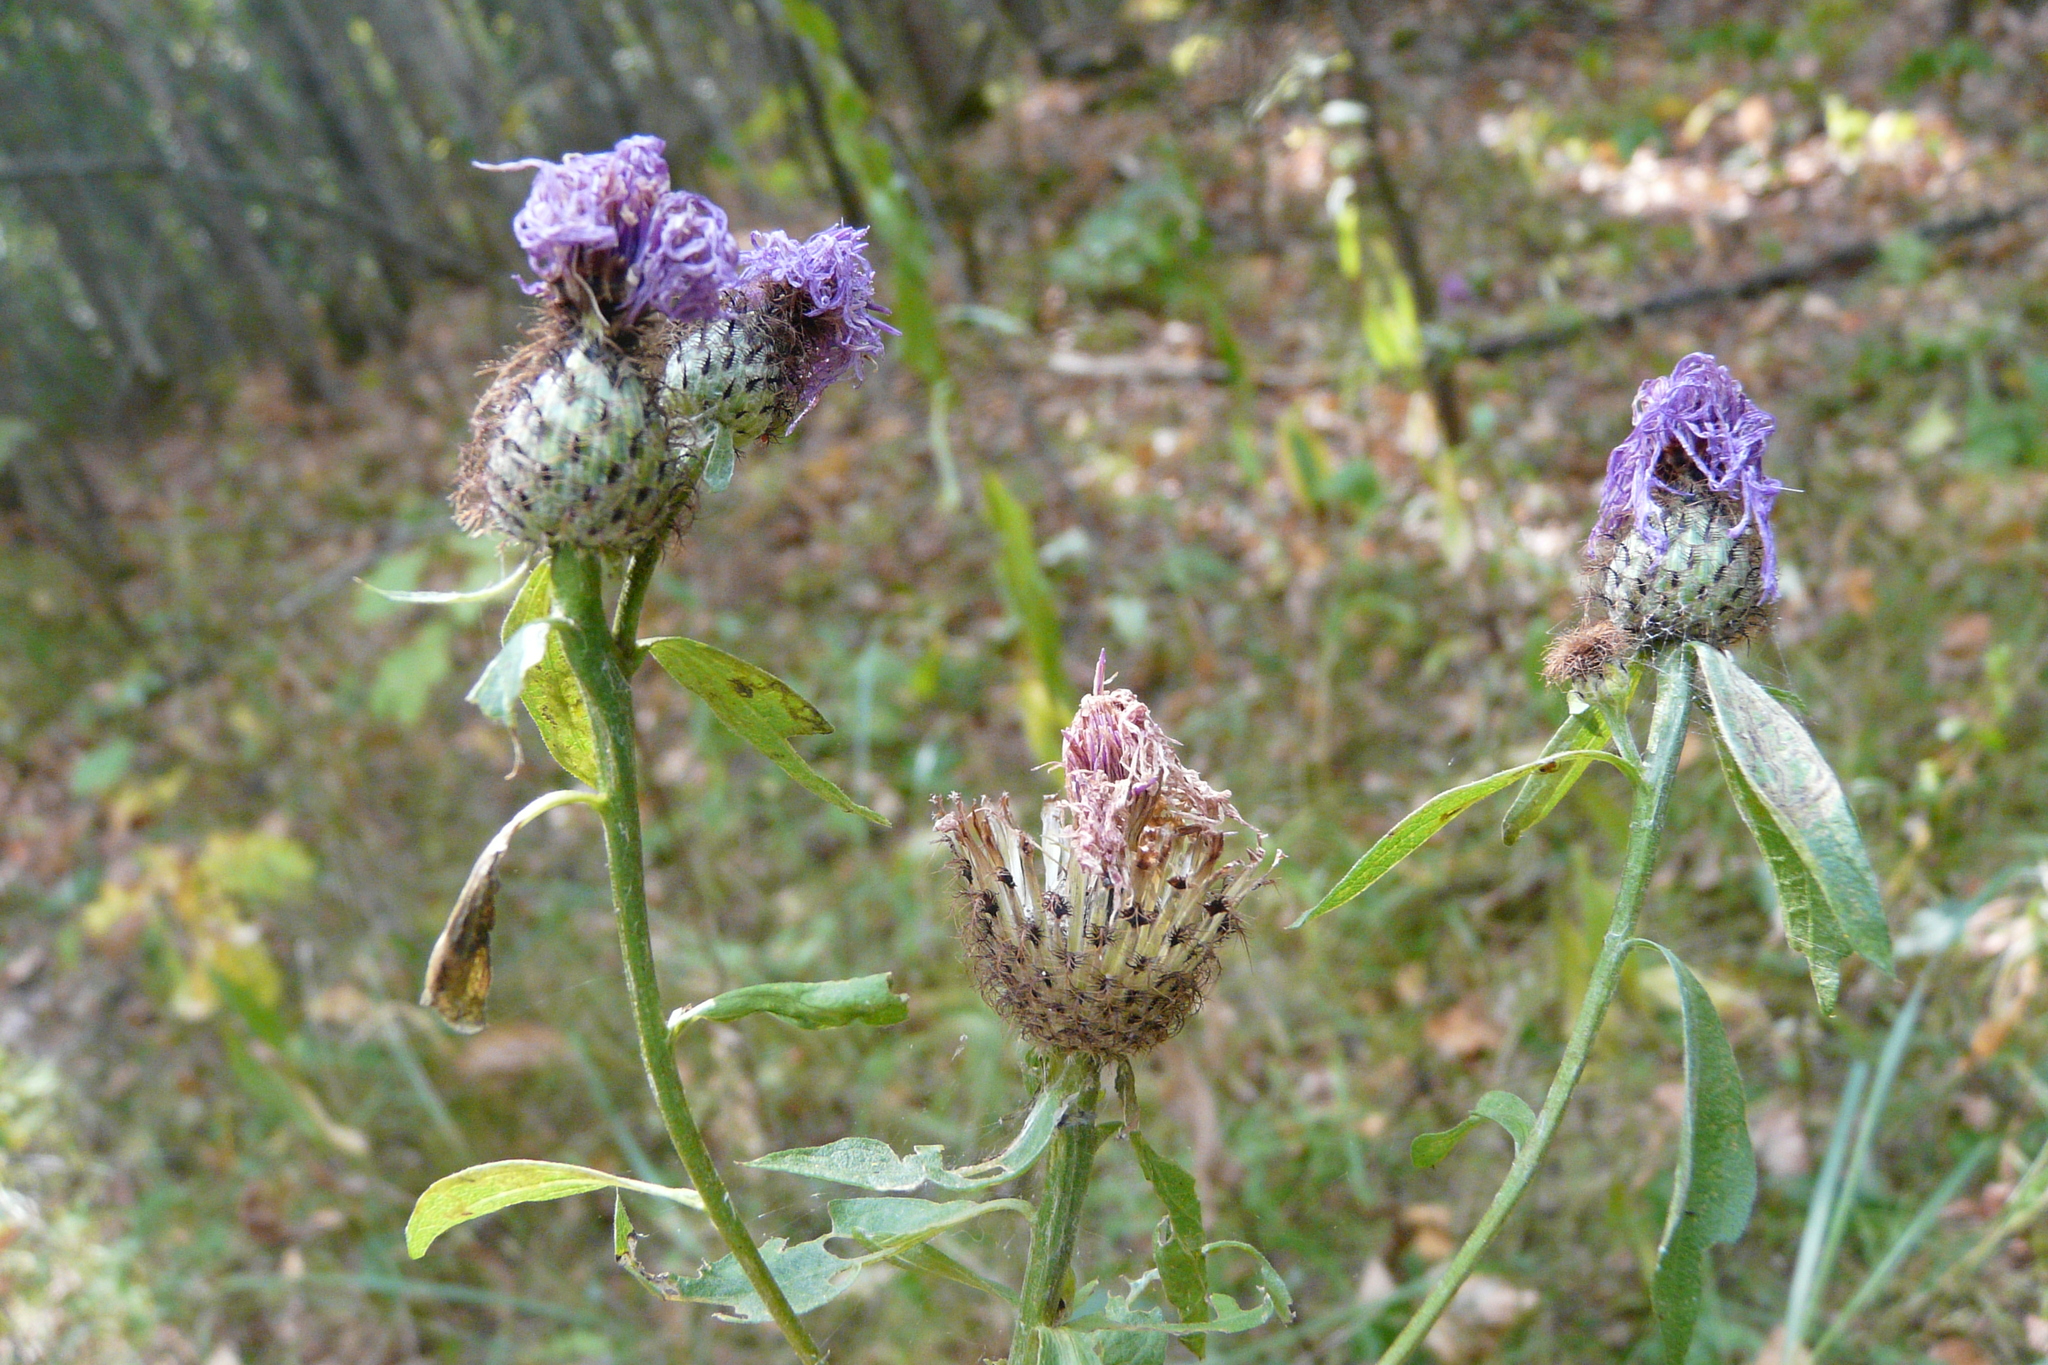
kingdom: Plantae
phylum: Tracheophyta
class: Magnoliopsida
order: Asterales
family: Asteraceae
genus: Centaurea
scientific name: Centaurea pseudophrygia
